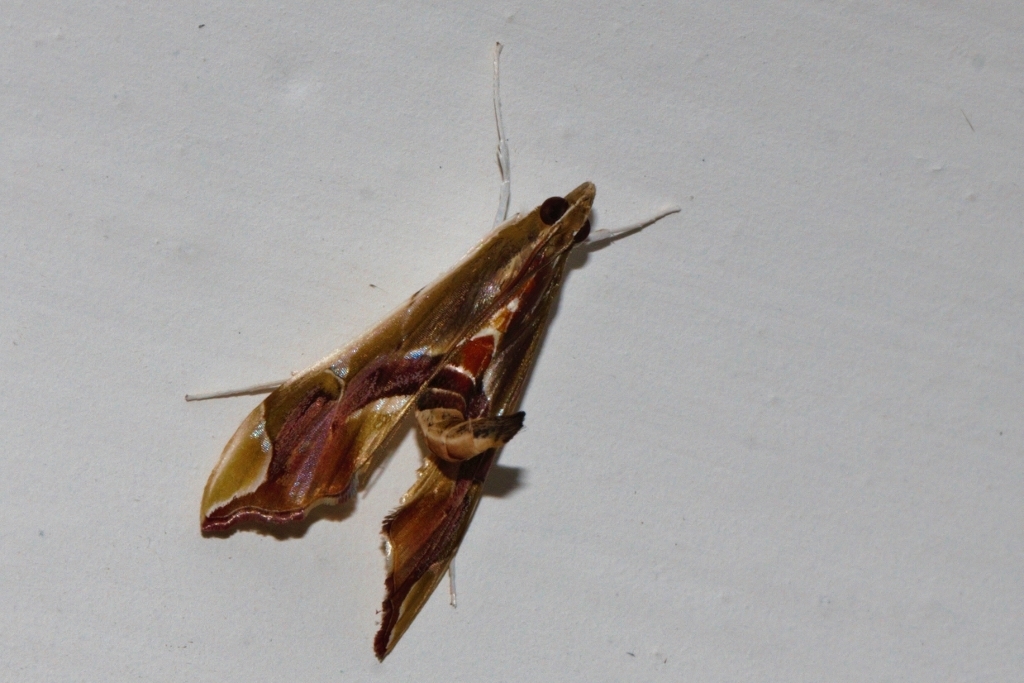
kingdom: Animalia
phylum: Arthropoda
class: Insecta
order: Lepidoptera
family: Crambidae
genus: Agathodes
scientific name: Agathodes musivalis
